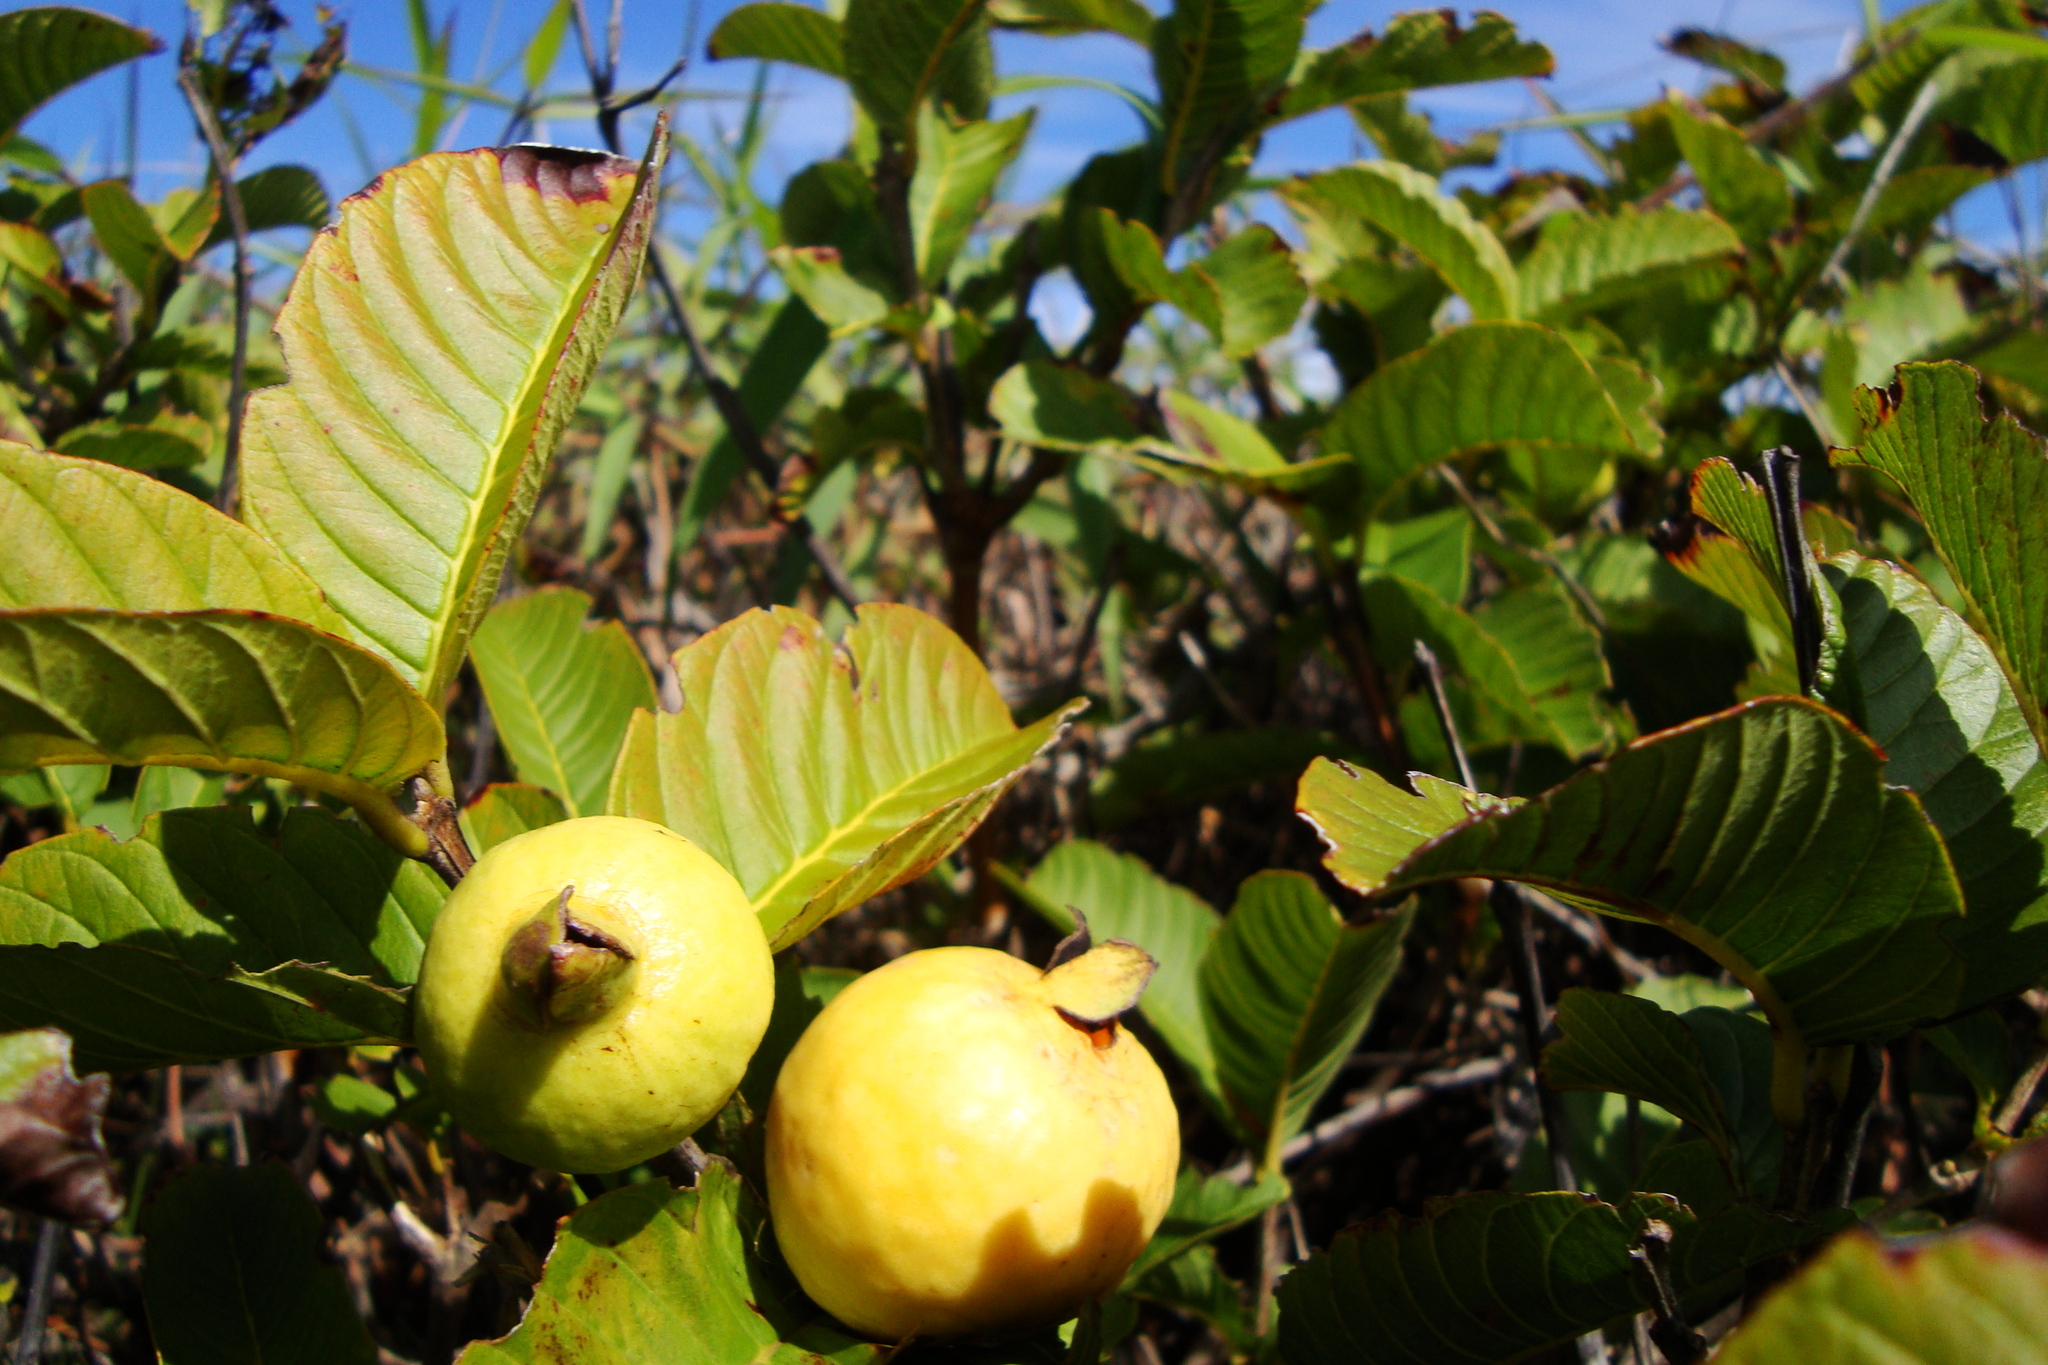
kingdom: Plantae
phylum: Tracheophyta
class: Magnoliopsida
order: Myrtales
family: Myrtaceae
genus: Psidium
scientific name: Psidium guajava
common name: Guava
